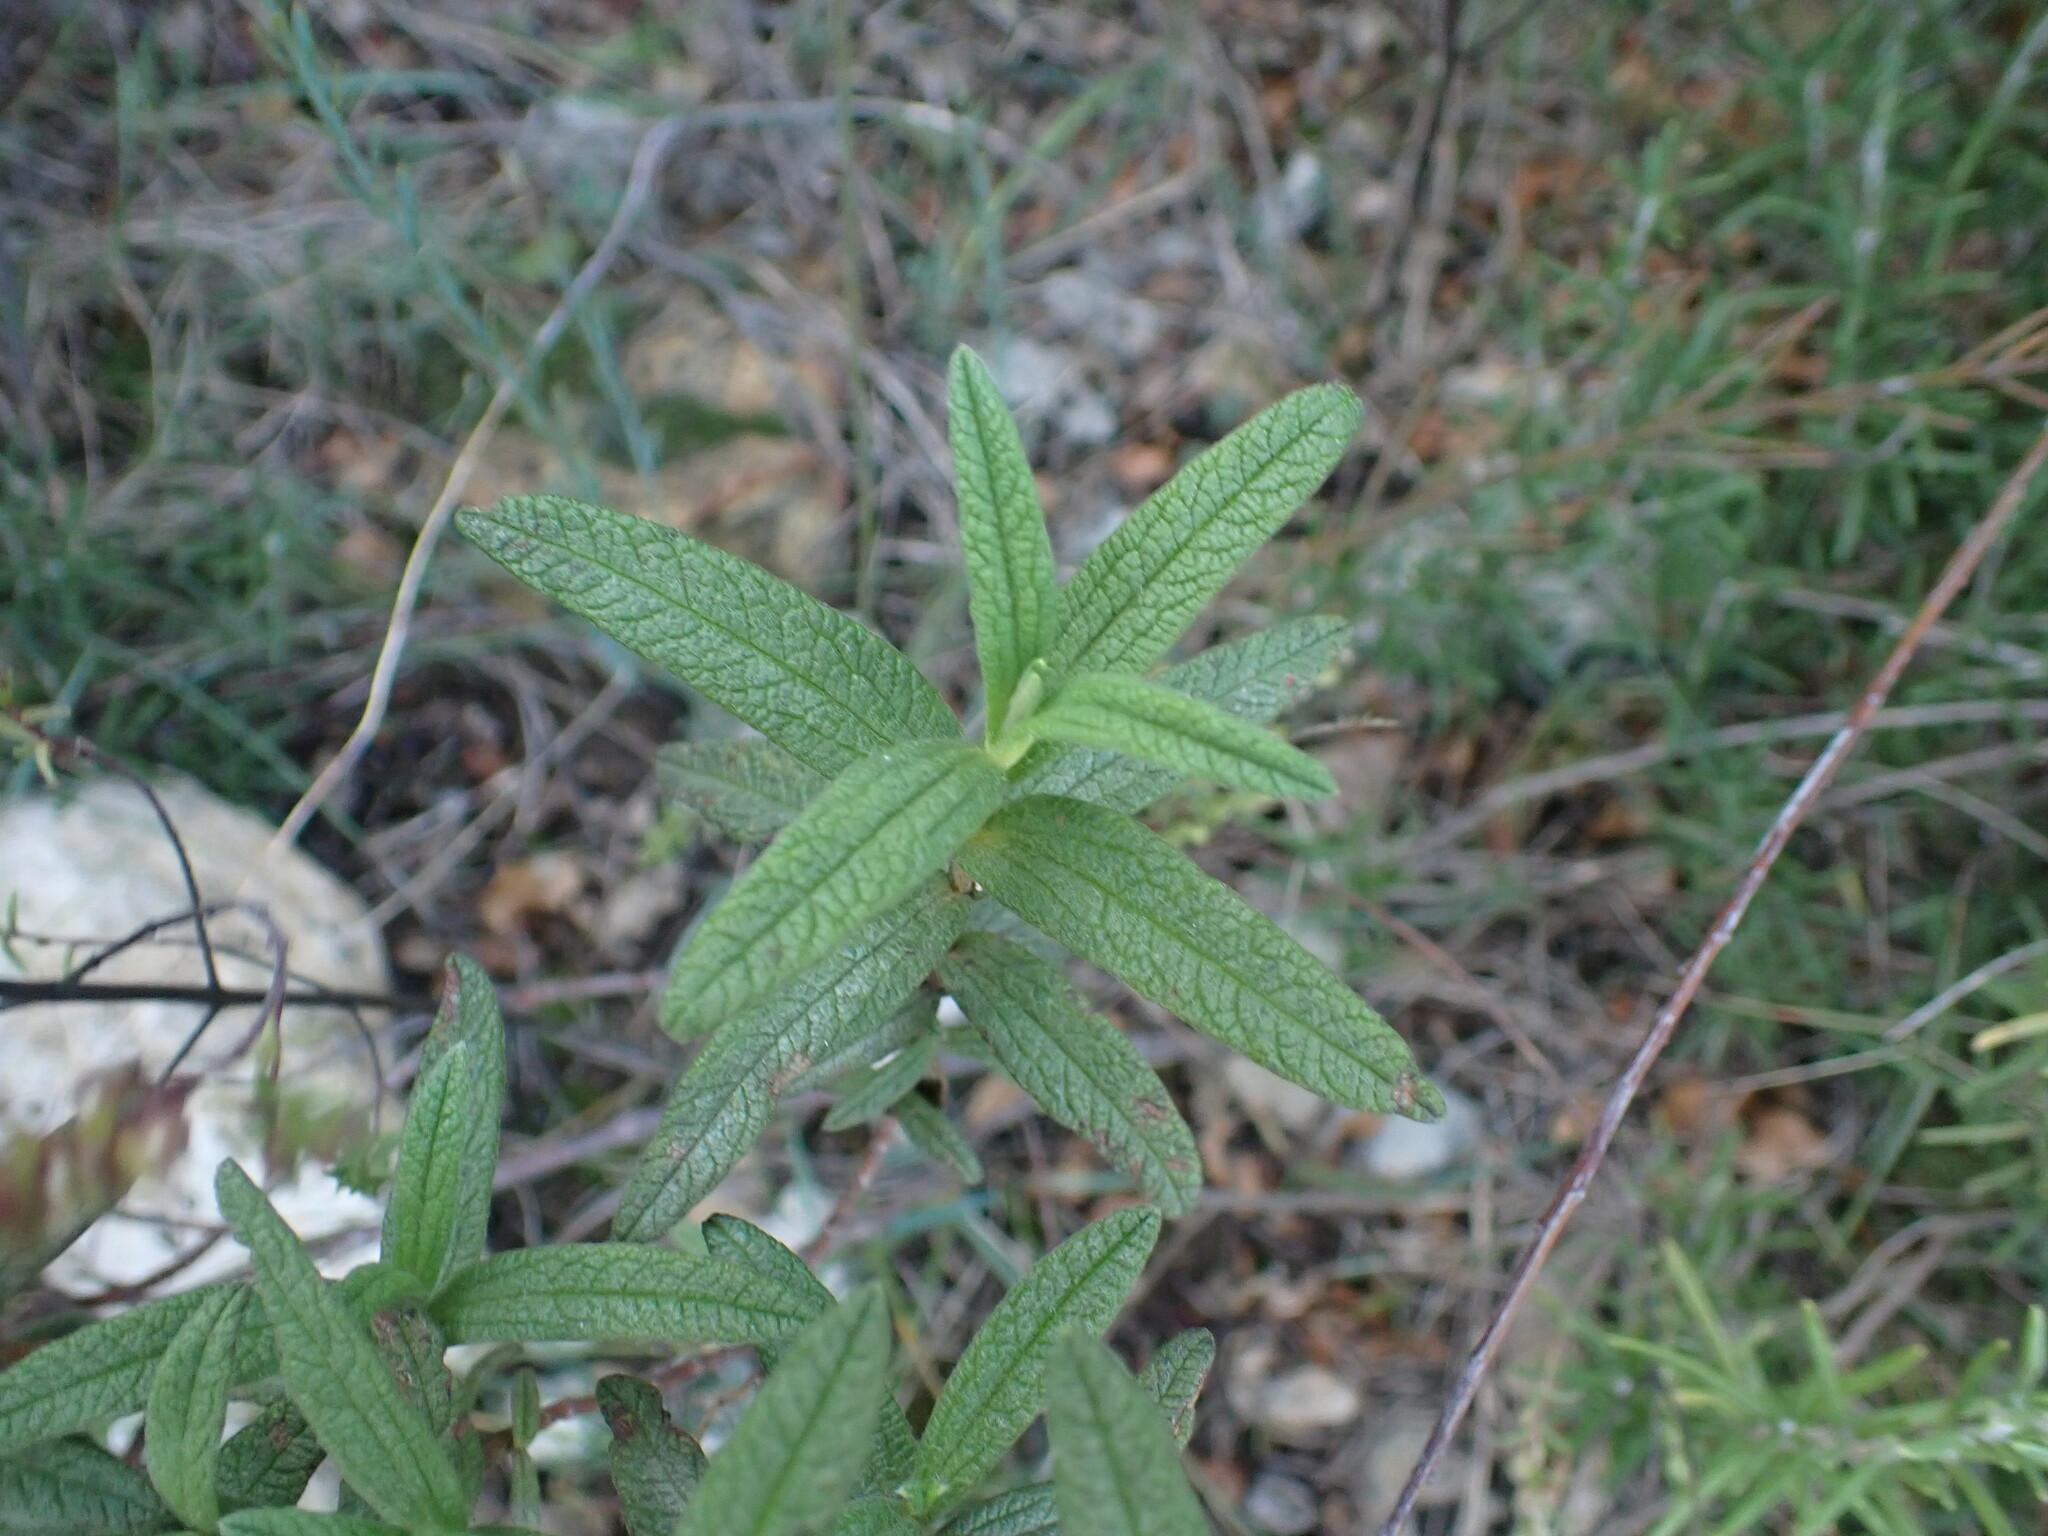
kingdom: Plantae
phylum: Tracheophyta
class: Magnoliopsida
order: Malvales
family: Cistaceae
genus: Cistus
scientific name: Cistus monspeliensis
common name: Montpelier cistus
